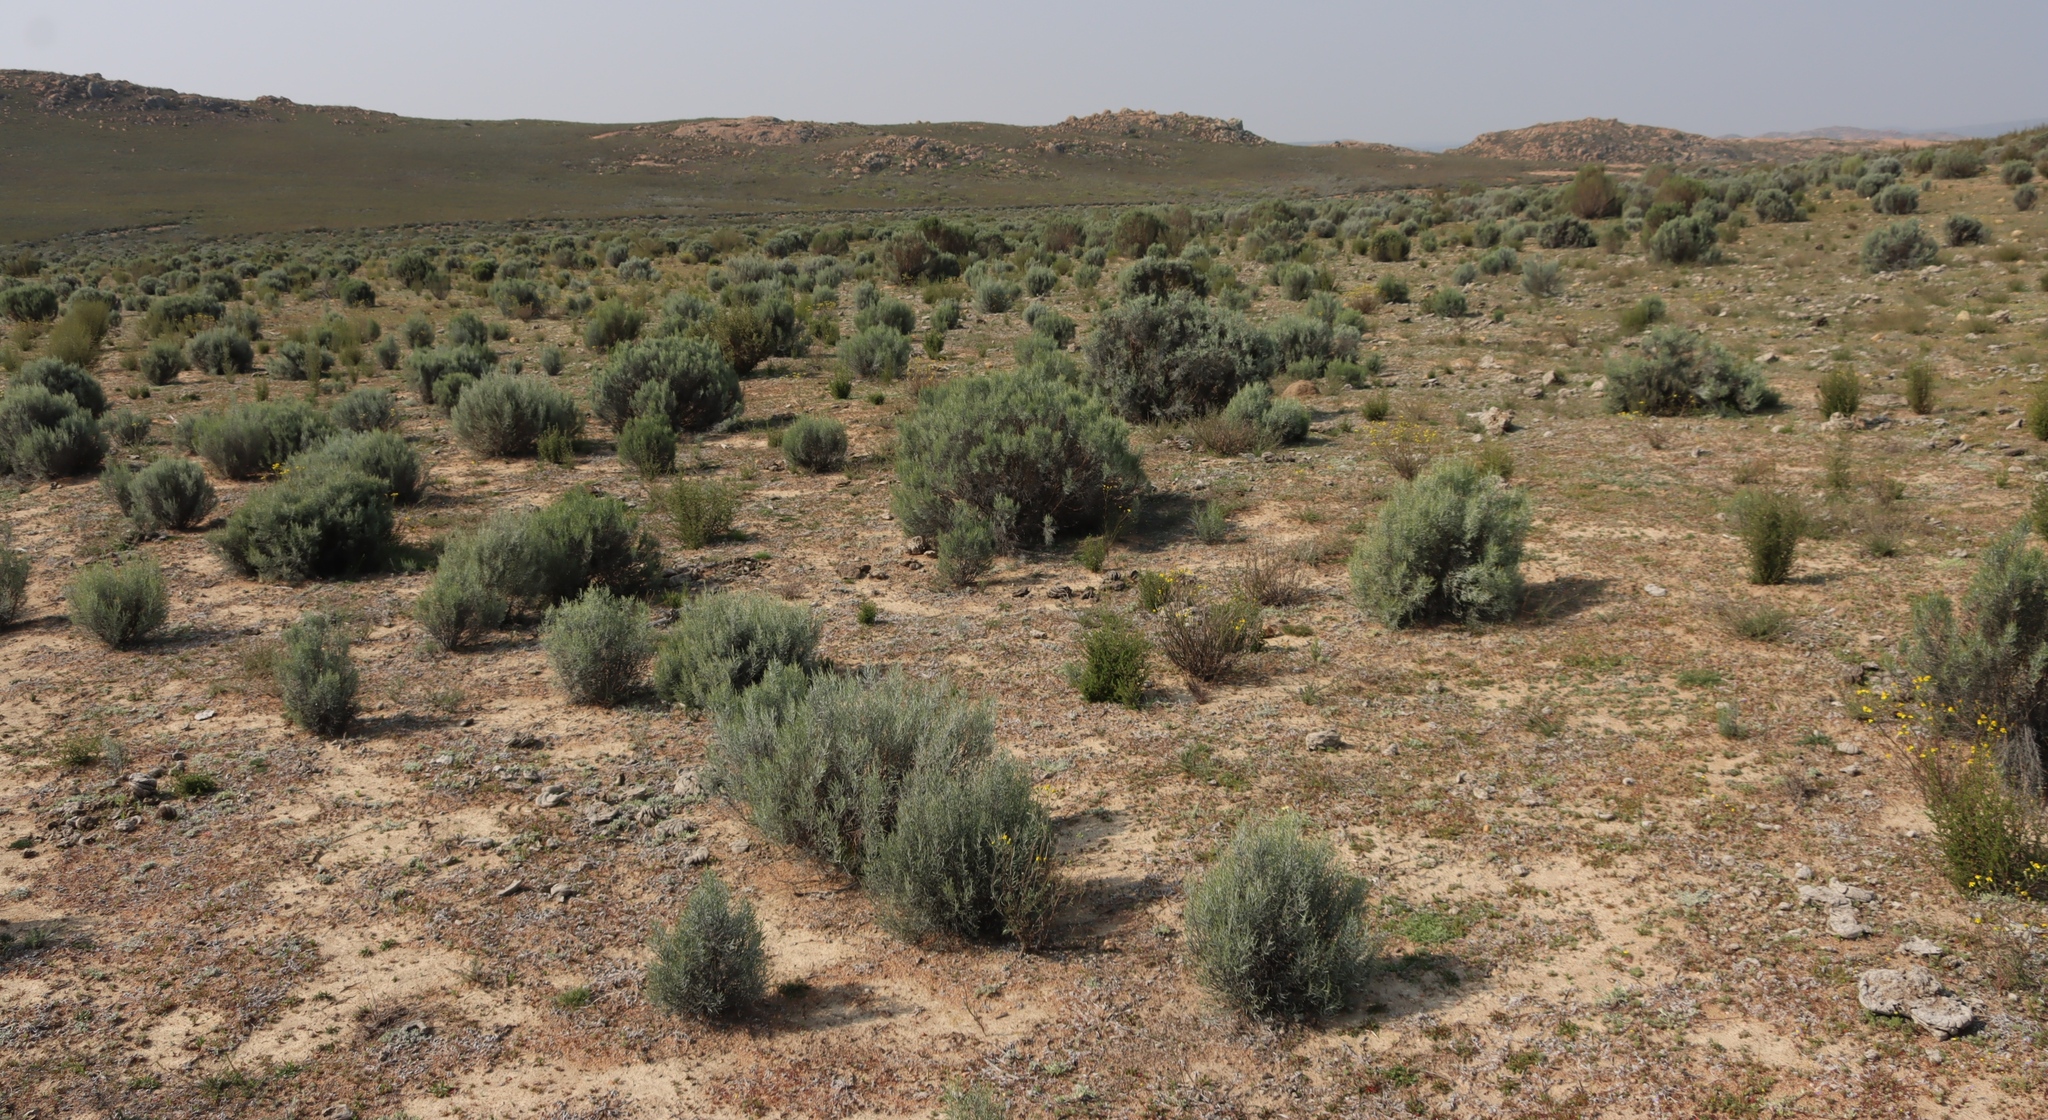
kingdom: Plantae
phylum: Tracheophyta
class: Magnoliopsida
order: Asterales
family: Asteraceae
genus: Dicerothamnus
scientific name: Dicerothamnus rhinocerotis
